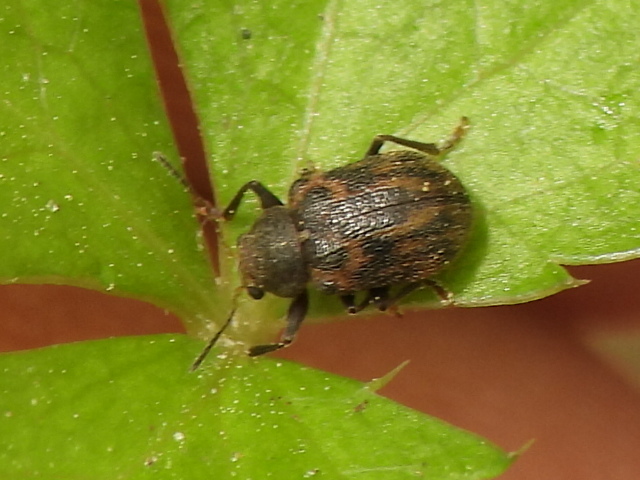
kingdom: Animalia
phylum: Arthropoda
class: Insecta
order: Coleoptera
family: Chrysomelidae
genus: Xanthonia
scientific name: Xanthonia picturata
